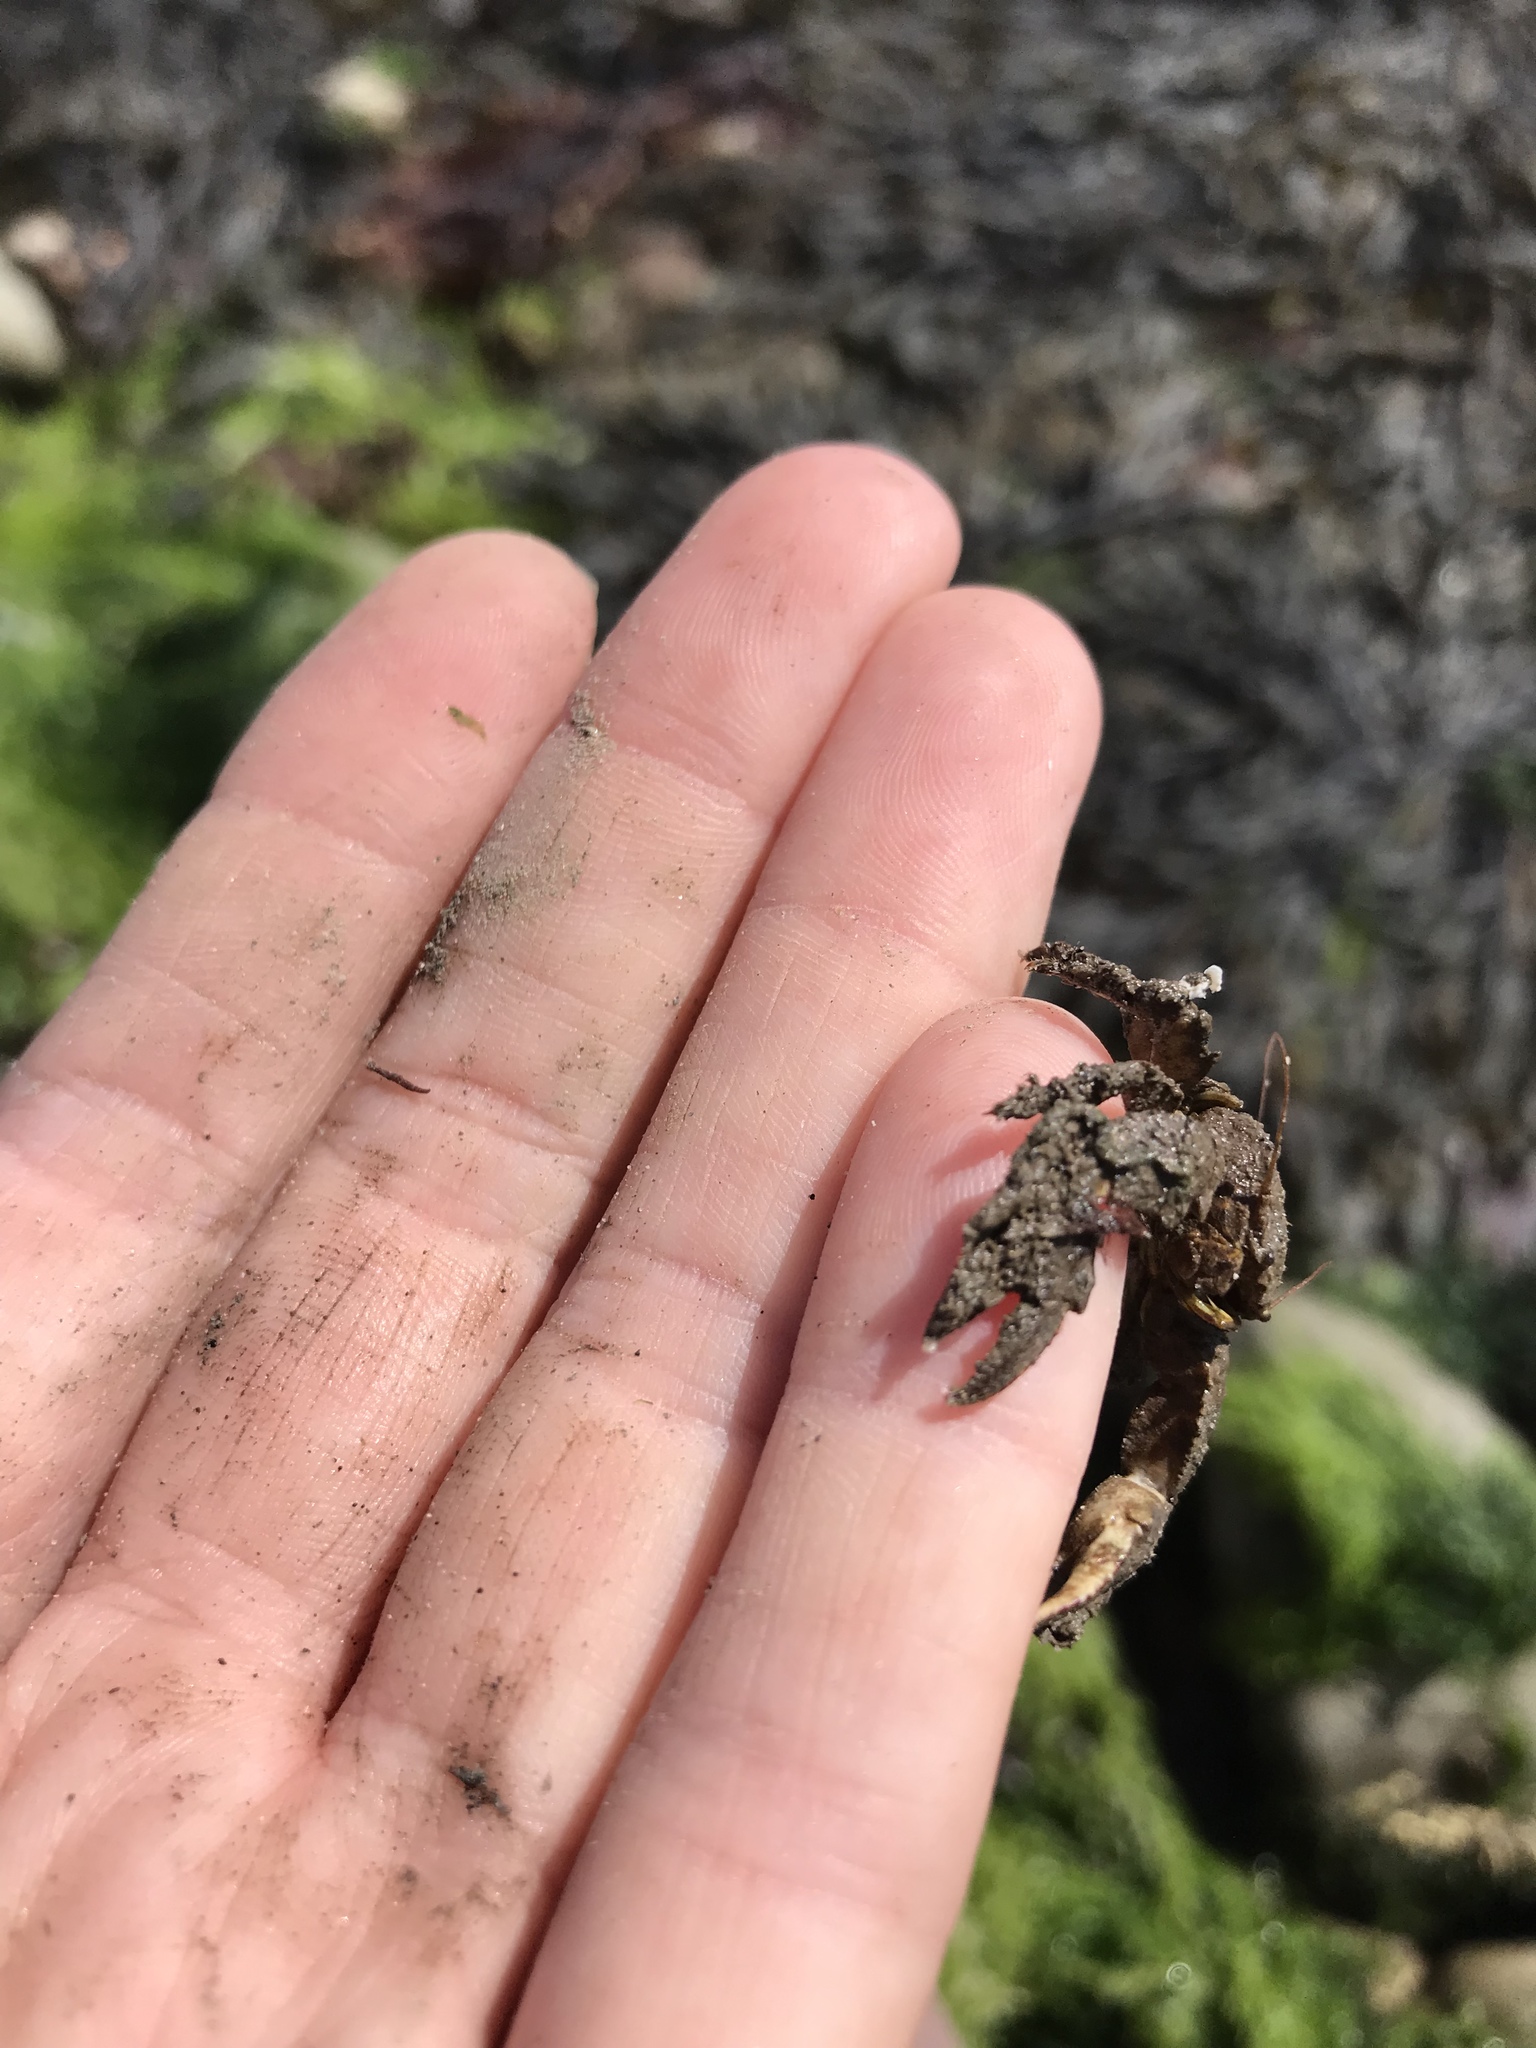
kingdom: Animalia
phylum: Arthropoda
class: Malacostraca
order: Decapoda
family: Carcinidae
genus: Carcinus
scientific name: Carcinus maenas
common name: European green crab
